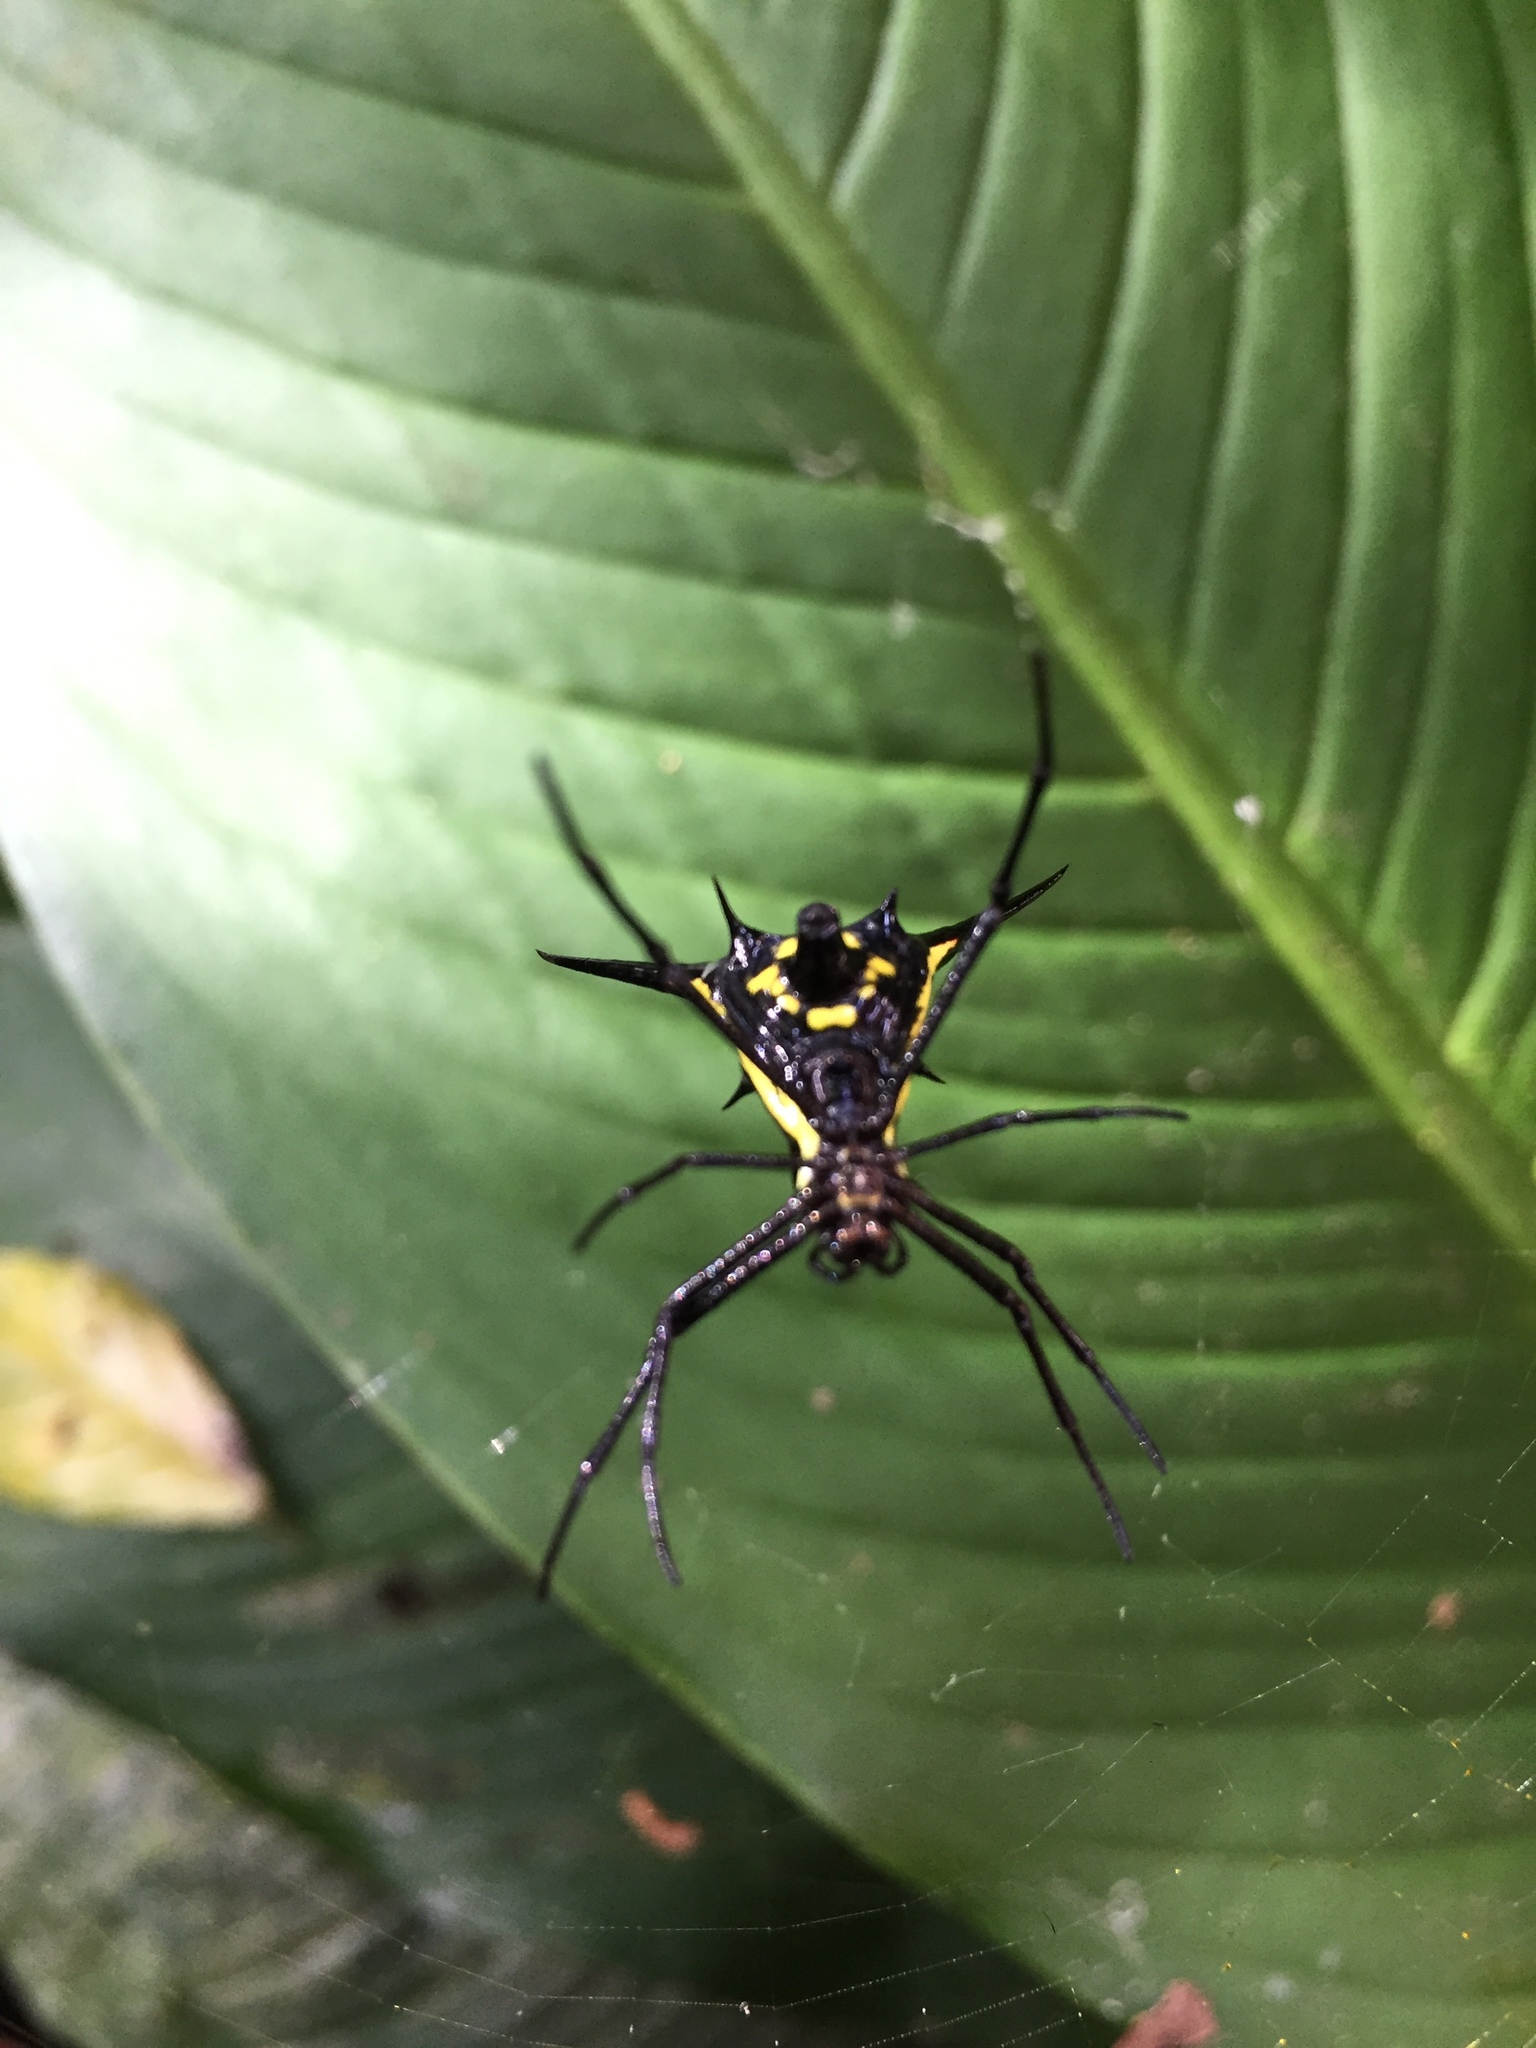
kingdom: Animalia
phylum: Arthropoda
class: Arachnida
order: Araneae
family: Araneidae
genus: Micrathena
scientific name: Micrathena schreibersi
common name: Orb weavers
